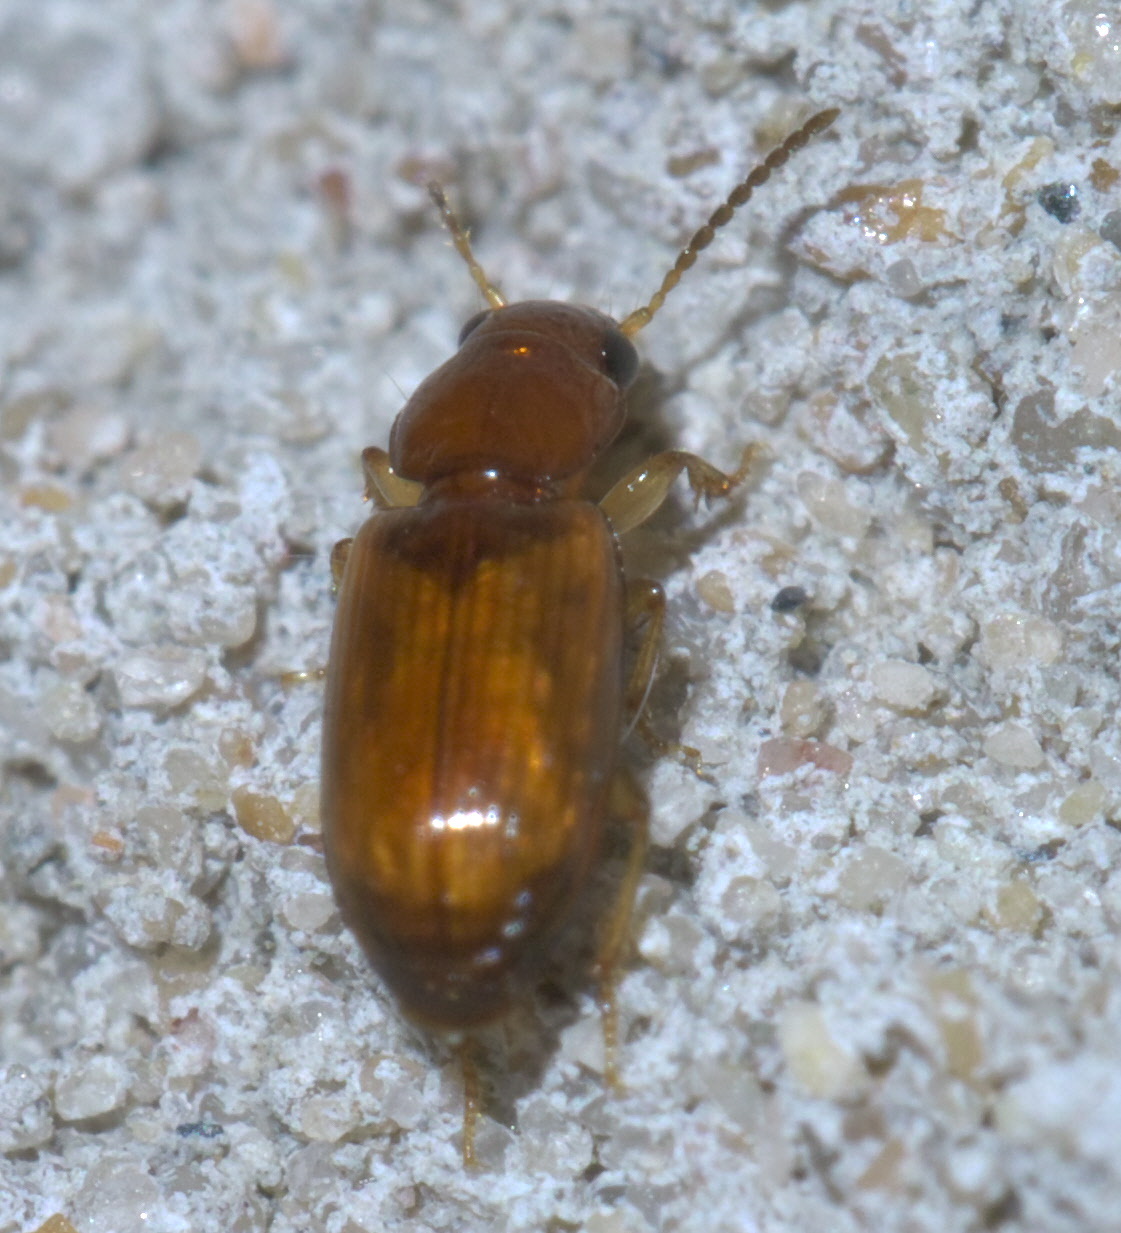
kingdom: Animalia
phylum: Arthropoda
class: Insecta
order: Coleoptera
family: Carabidae
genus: Acupalpus
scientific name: Acupalpus testaceus
